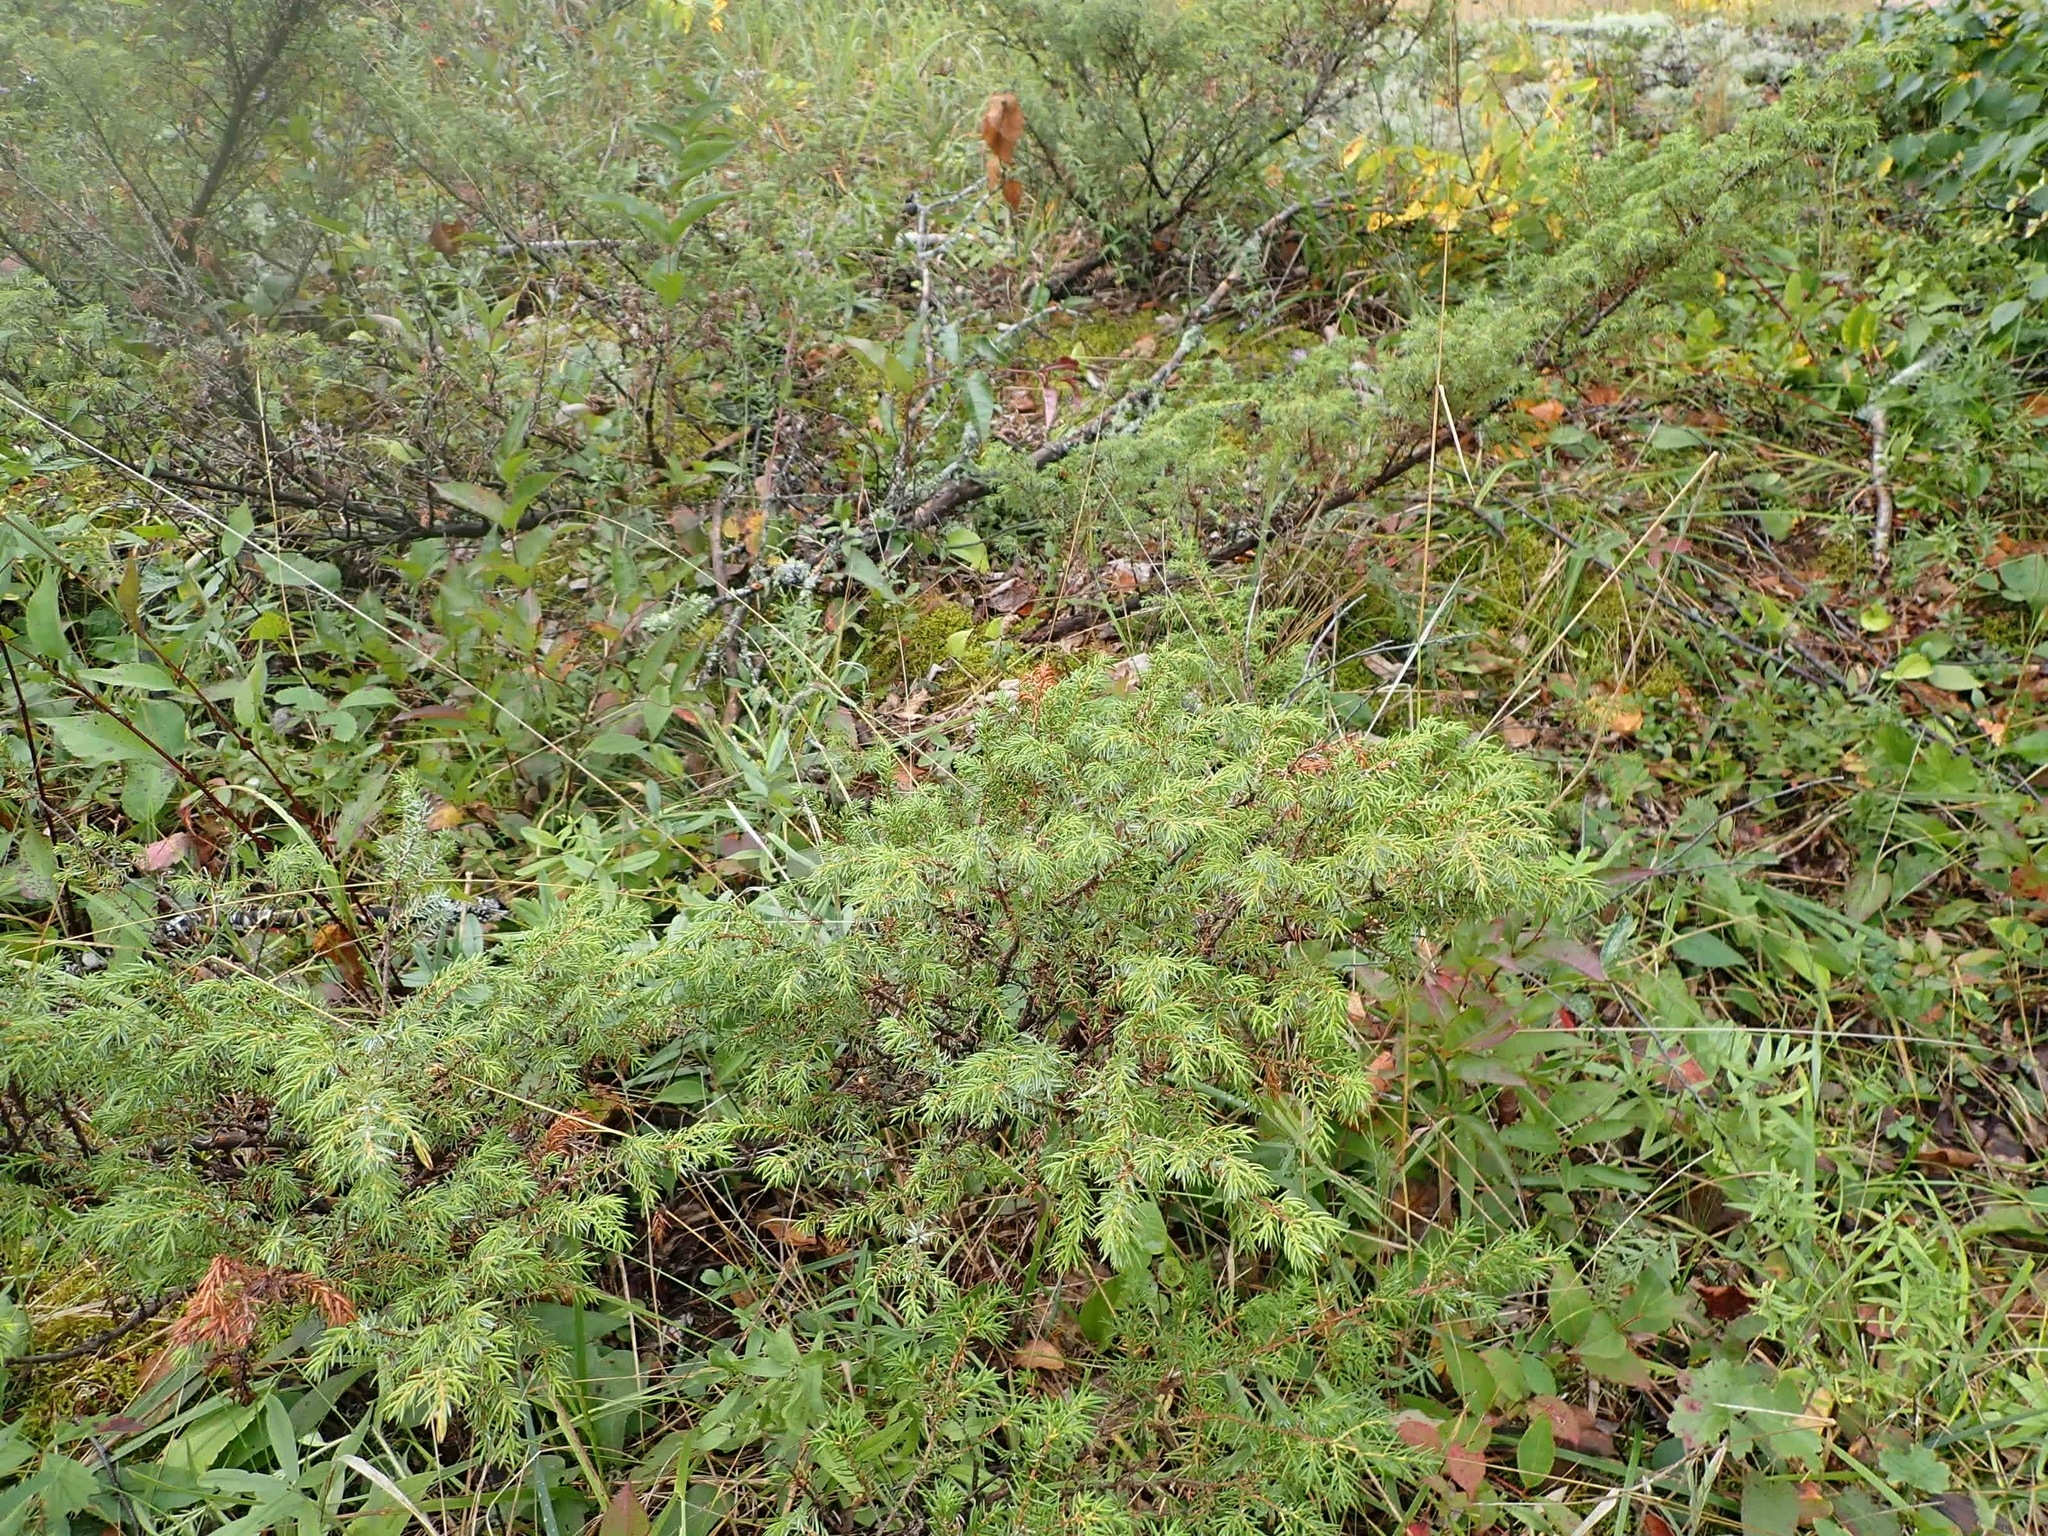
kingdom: Plantae
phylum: Tracheophyta
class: Pinopsida
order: Pinales
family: Cupressaceae
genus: Juniperus
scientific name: Juniperus communis
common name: Common juniper
